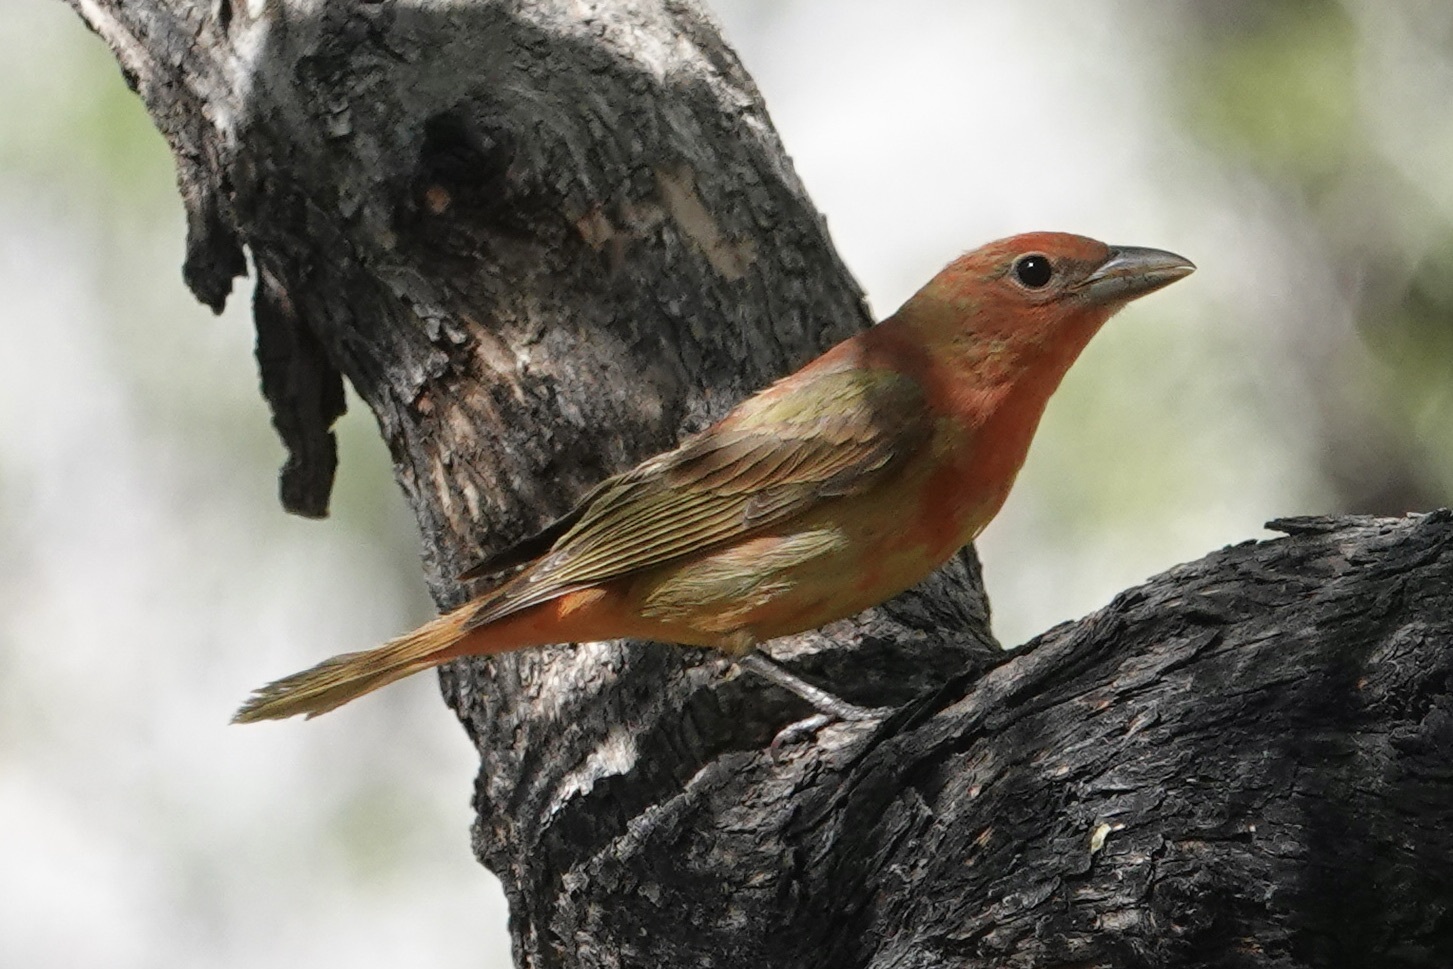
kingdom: Animalia
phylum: Chordata
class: Aves
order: Passeriformes
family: Cardinalidae
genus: Piranga
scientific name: Piranga rubra
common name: Summer tanager
